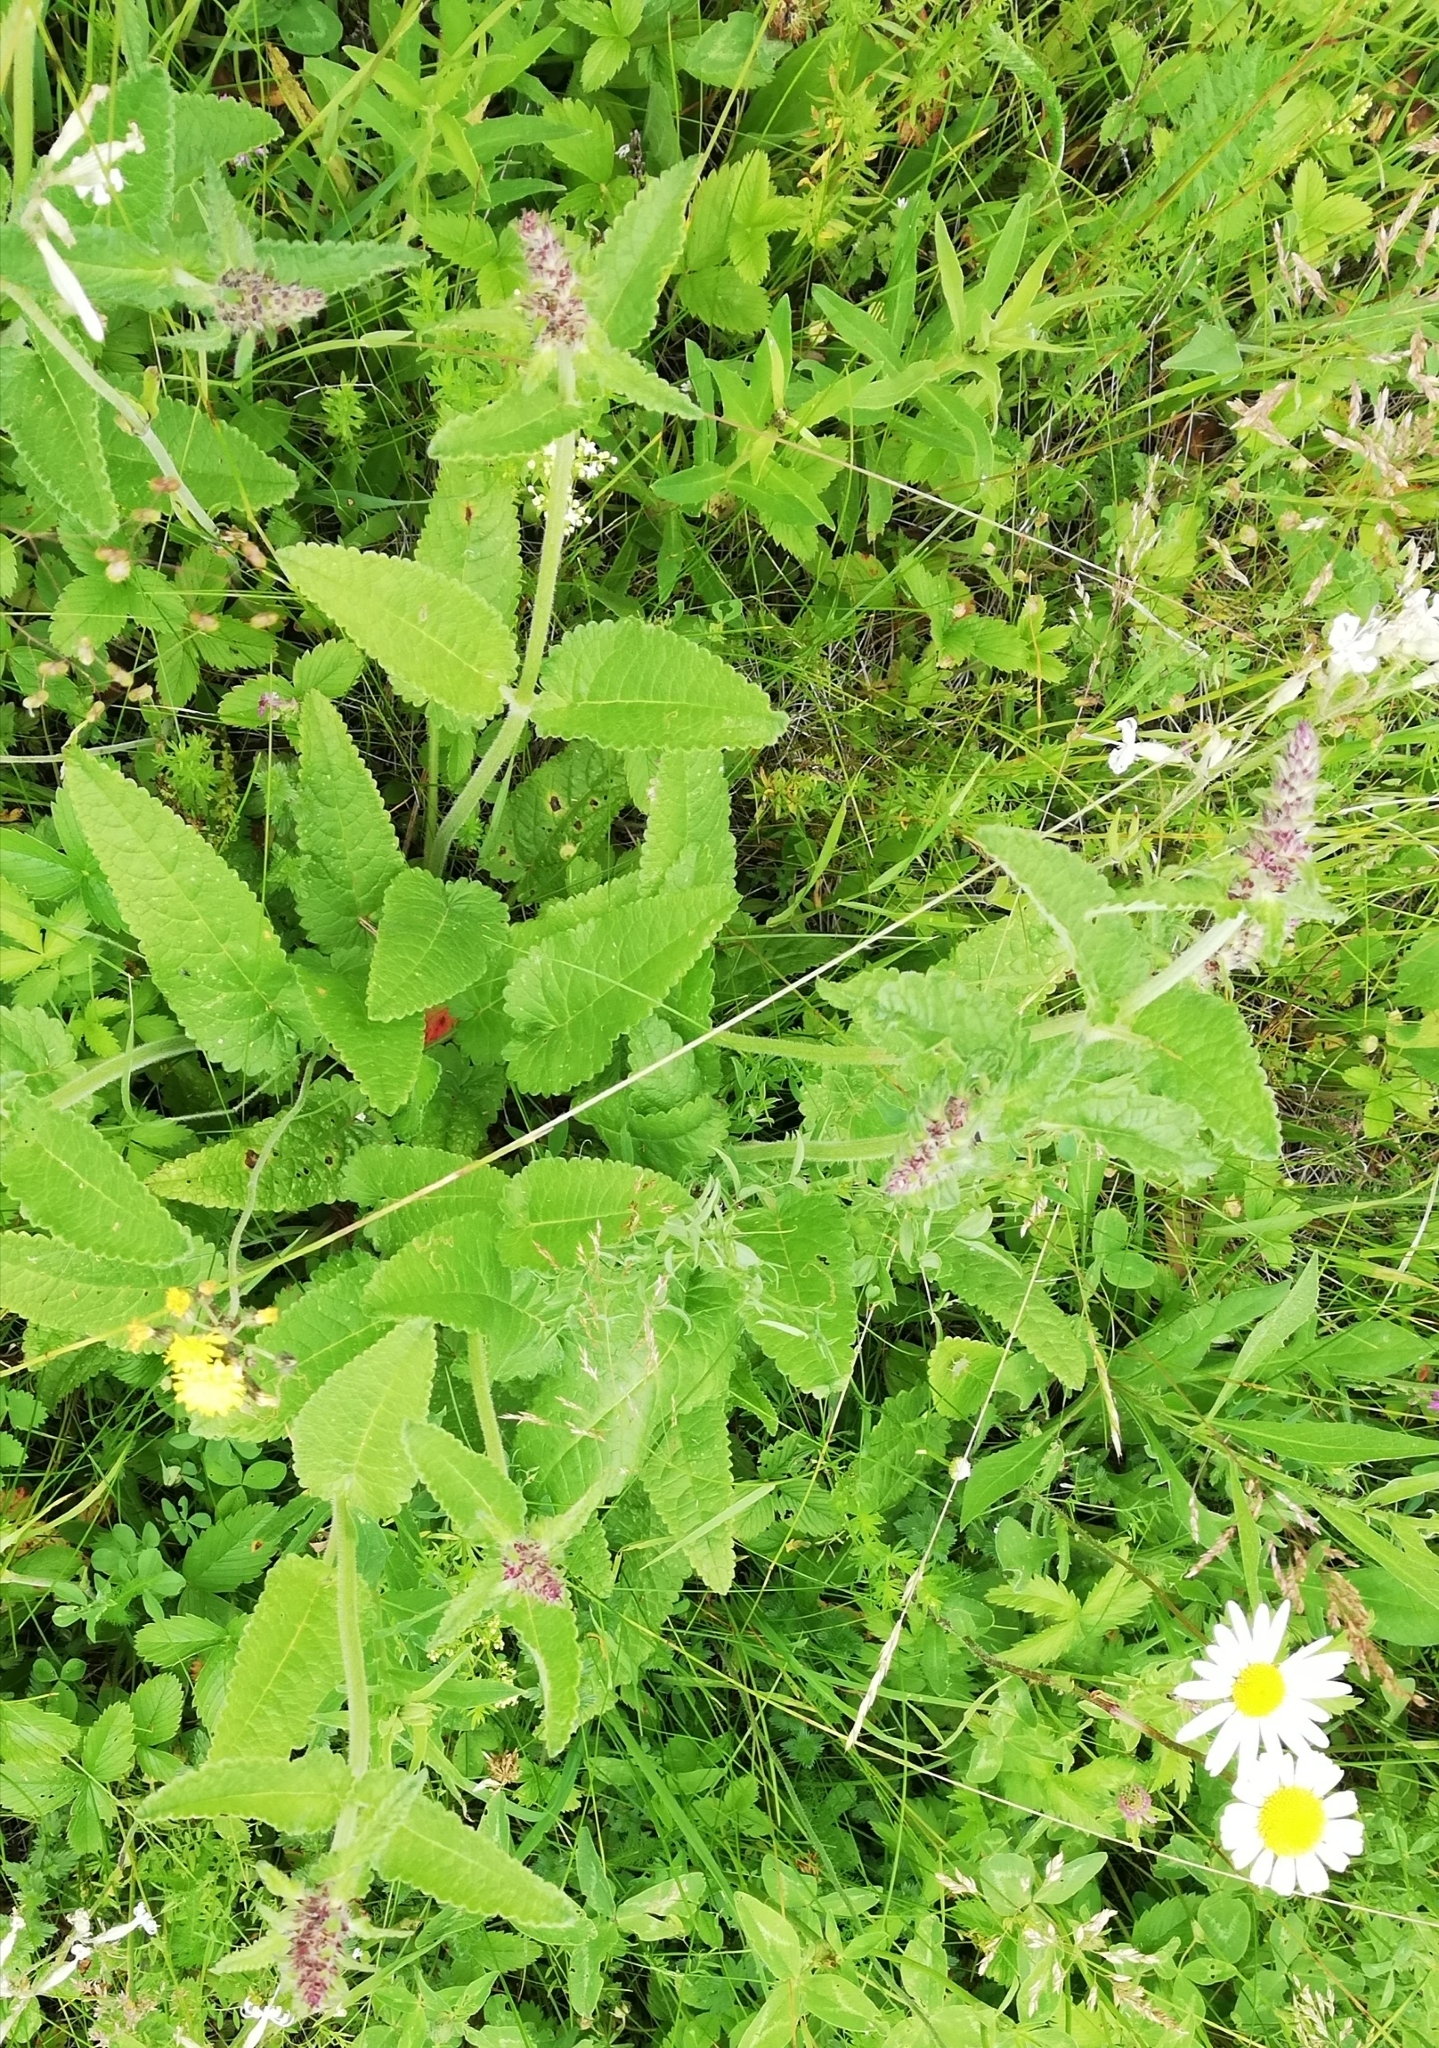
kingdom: Plantae
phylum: Tracheophyta
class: Magnoliopsida
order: Lamiales
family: Lamiaceae
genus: Betonica
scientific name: Betonica officinalis
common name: Bishop's-wort
